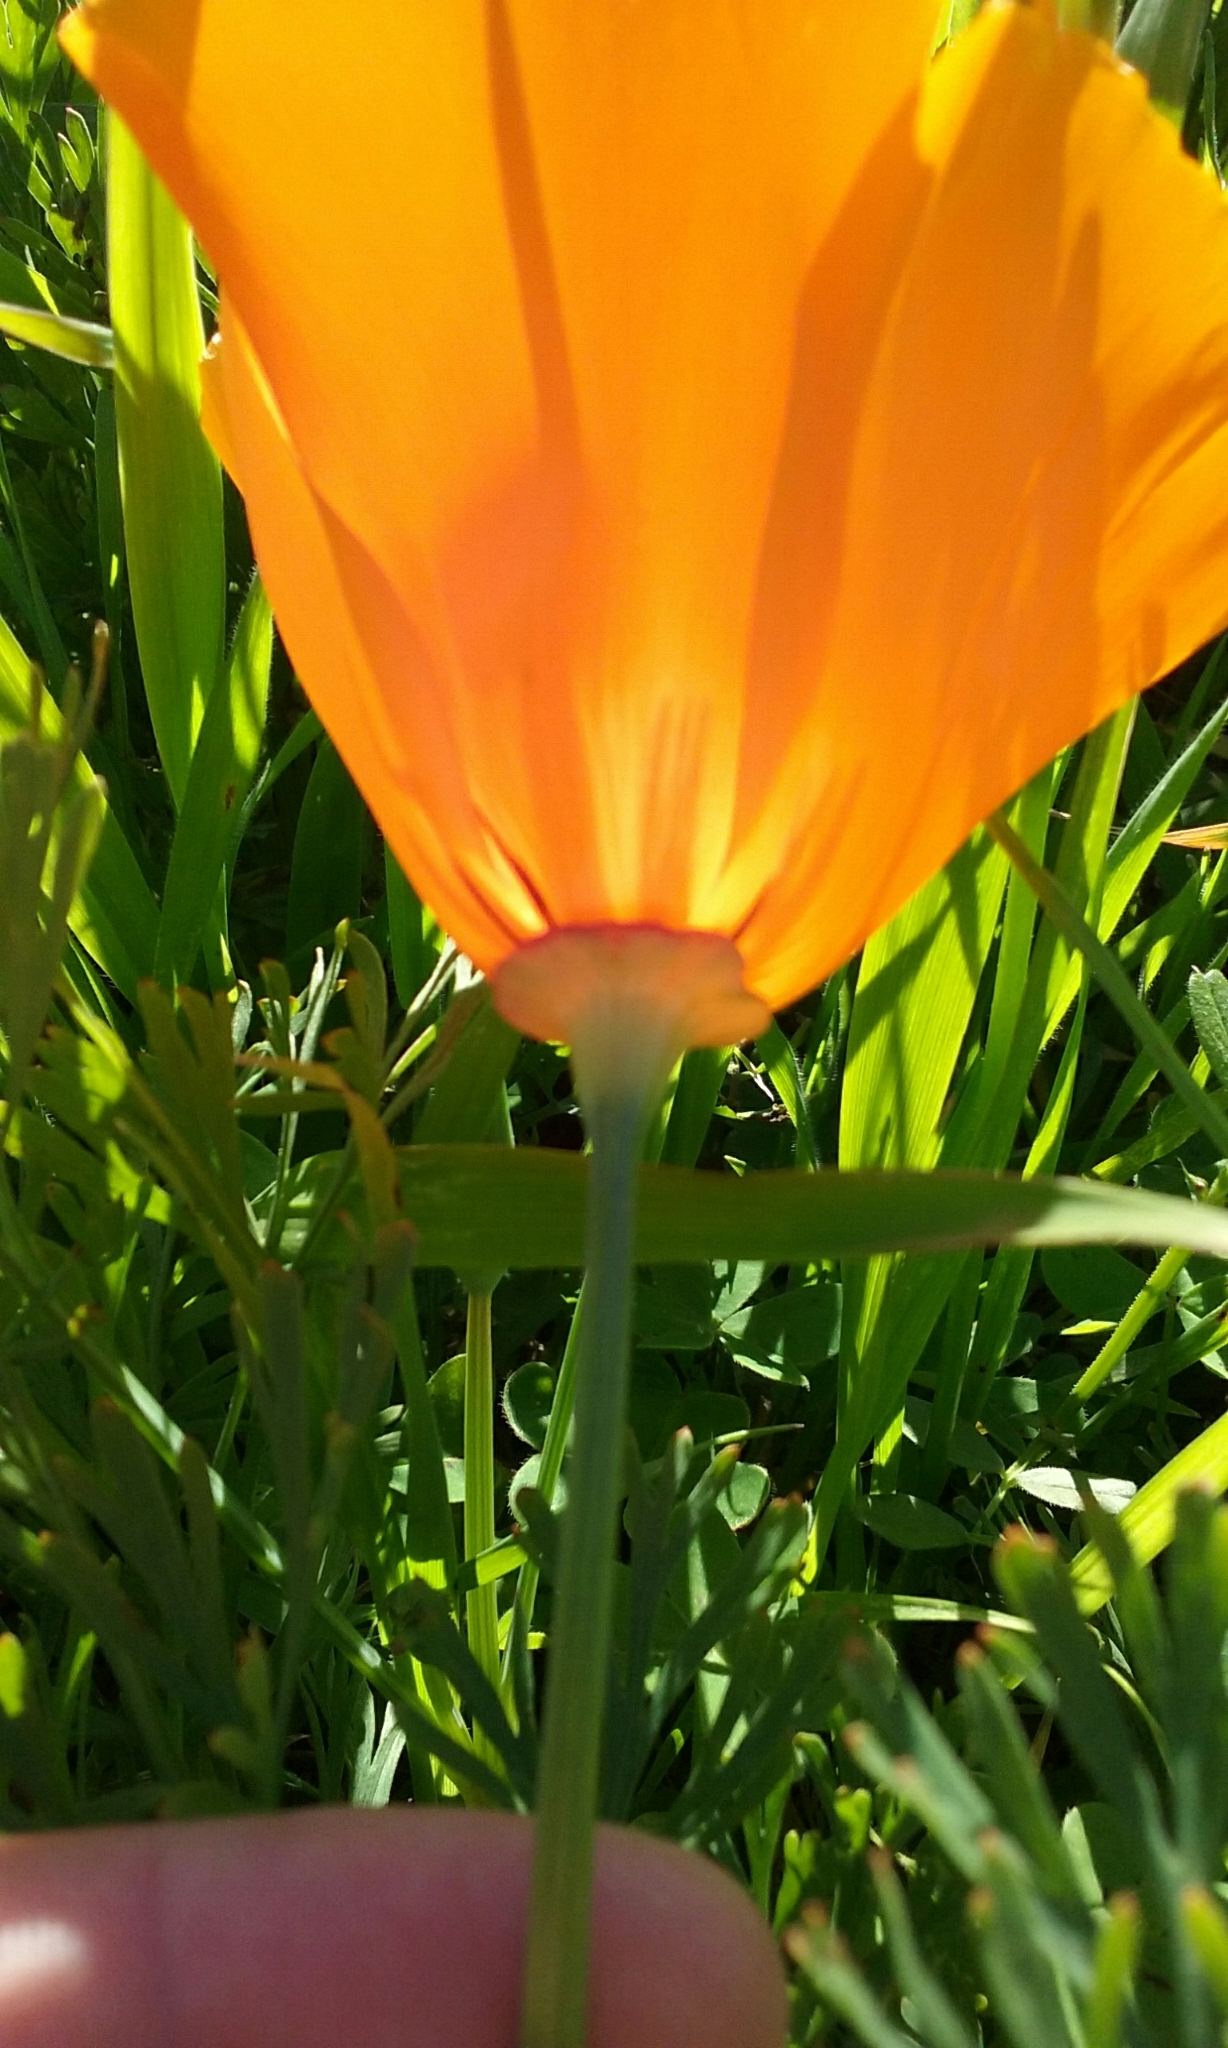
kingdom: Plantae
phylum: Tracheophyta
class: Magnoliopsida
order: Ranunculales
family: Papaveraceae
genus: Eschscholzia
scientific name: Eschscholzia californica
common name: California poppy
